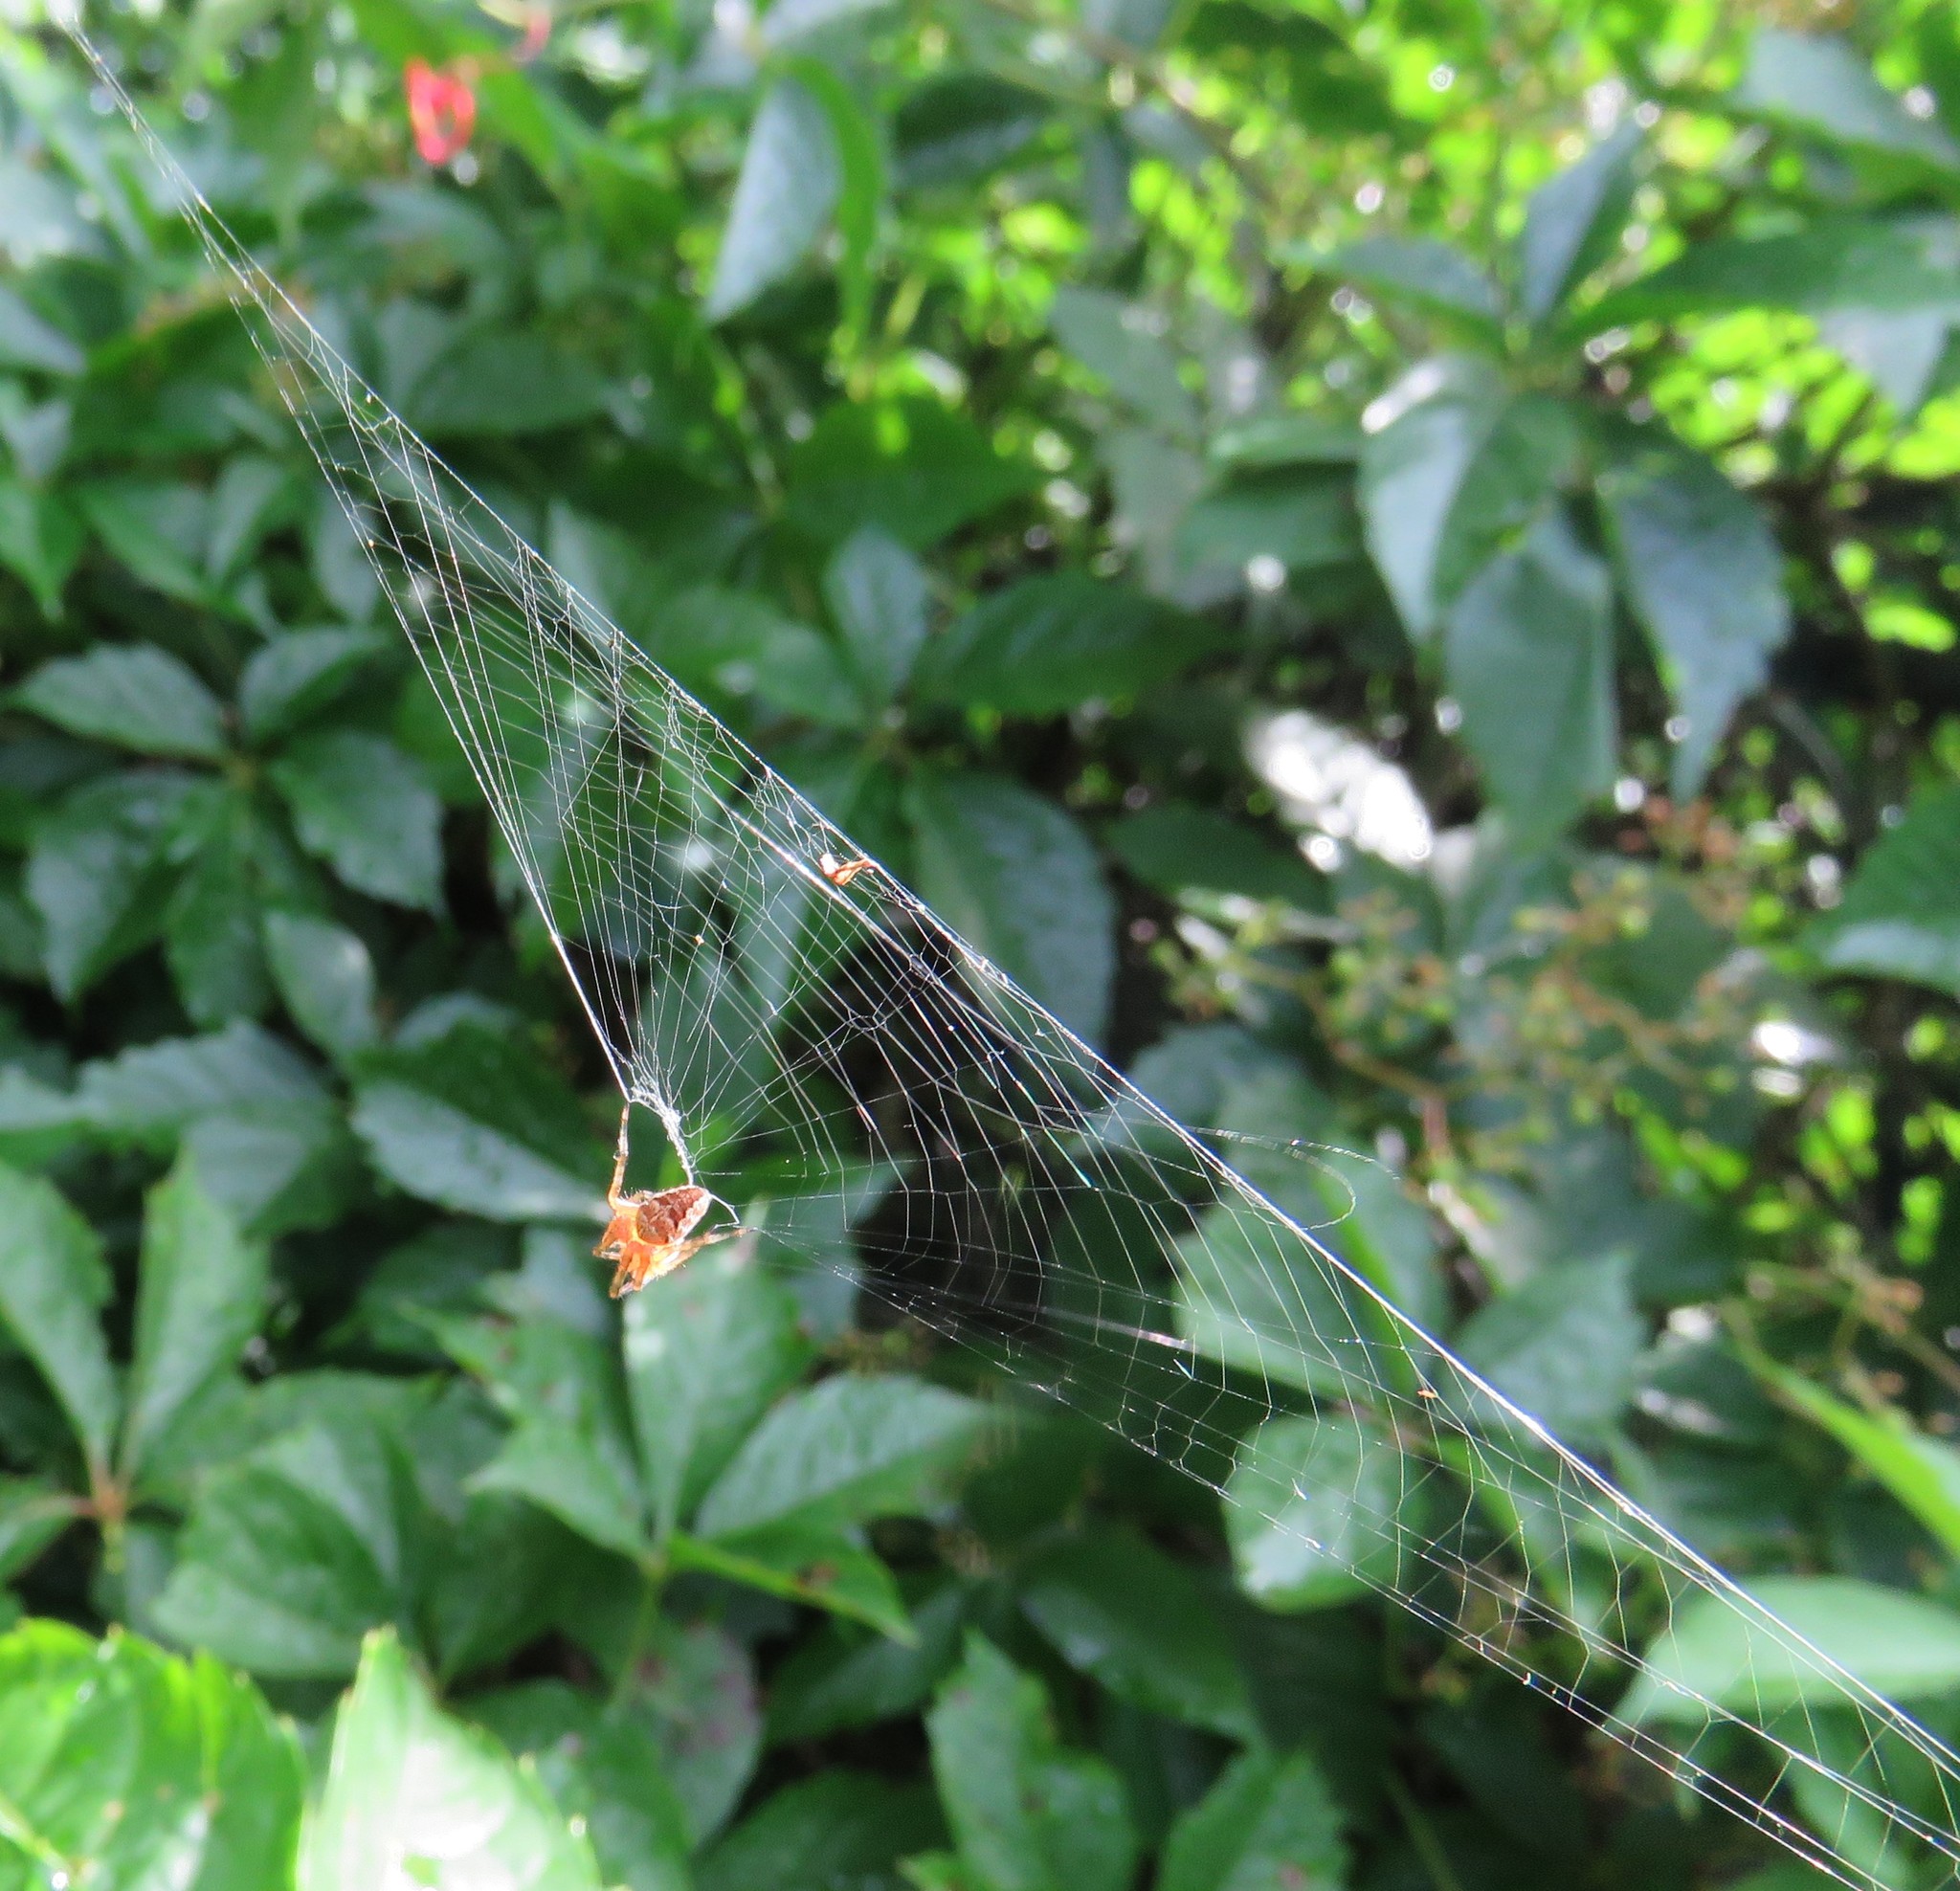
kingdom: Animalia
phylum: Arthropoda
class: Arachnida
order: Araneae
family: Araneidae
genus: Araneus
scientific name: Araneus diadematus
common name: Cross orbweaver
